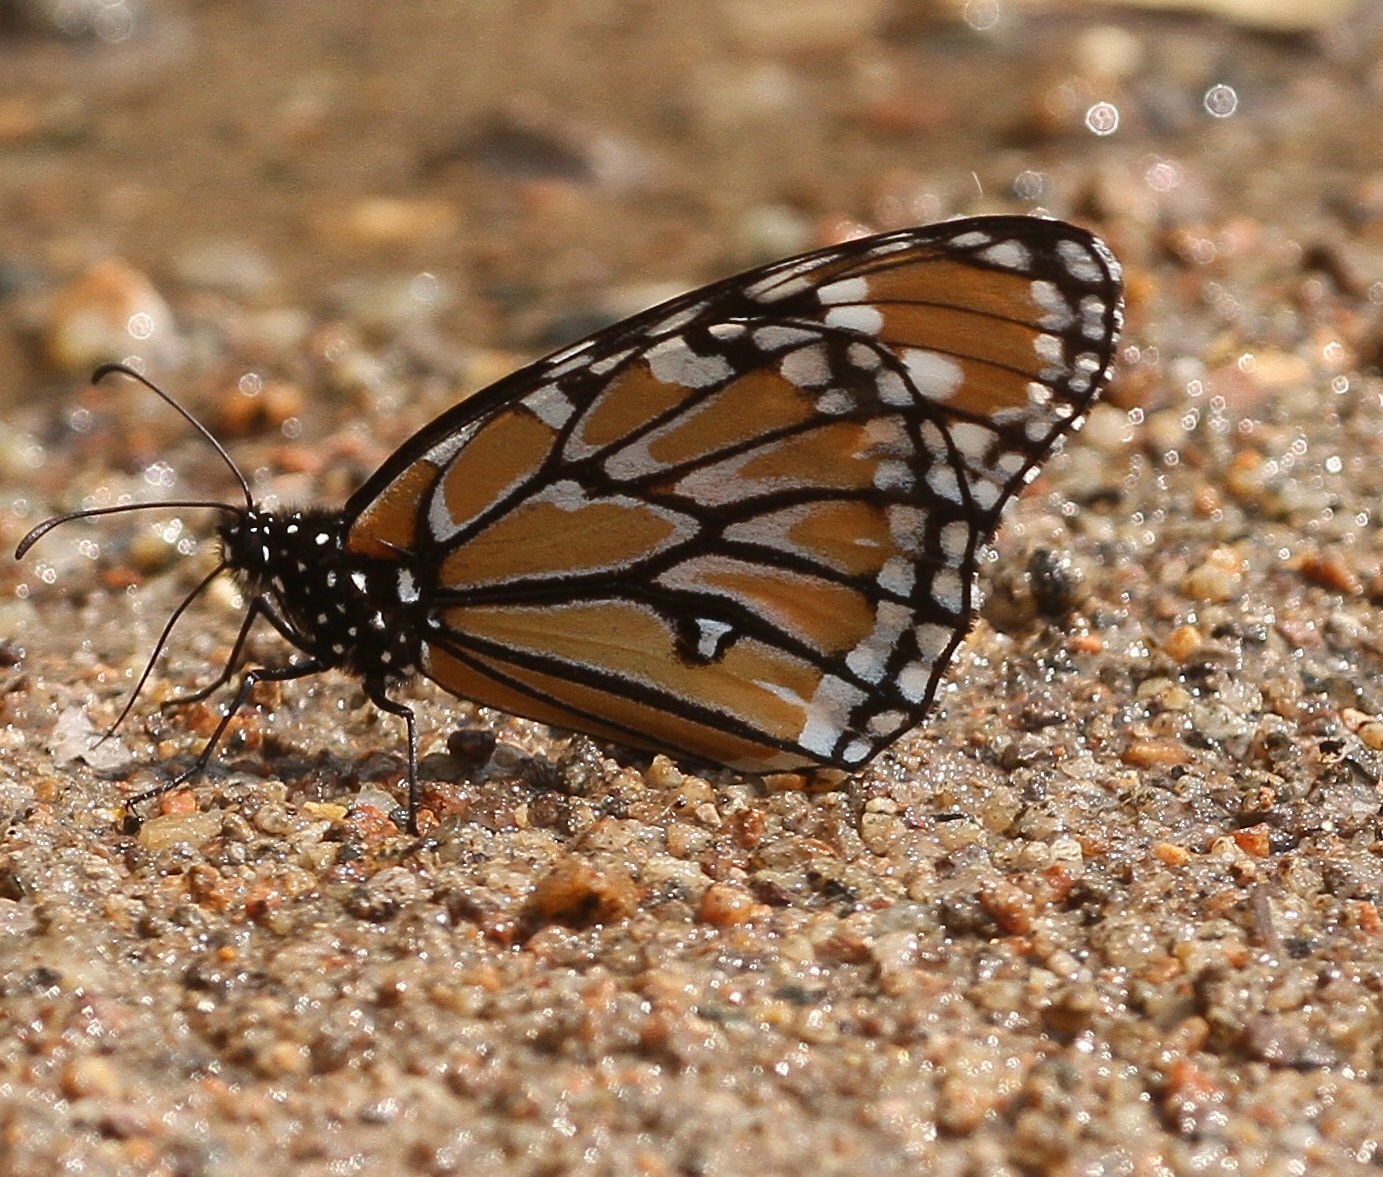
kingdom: Animalia
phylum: Arthropoda
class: Insecta
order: Lepidoptera
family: Nymphalidae
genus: Danaus
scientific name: Danaus gilippus
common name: Queen
